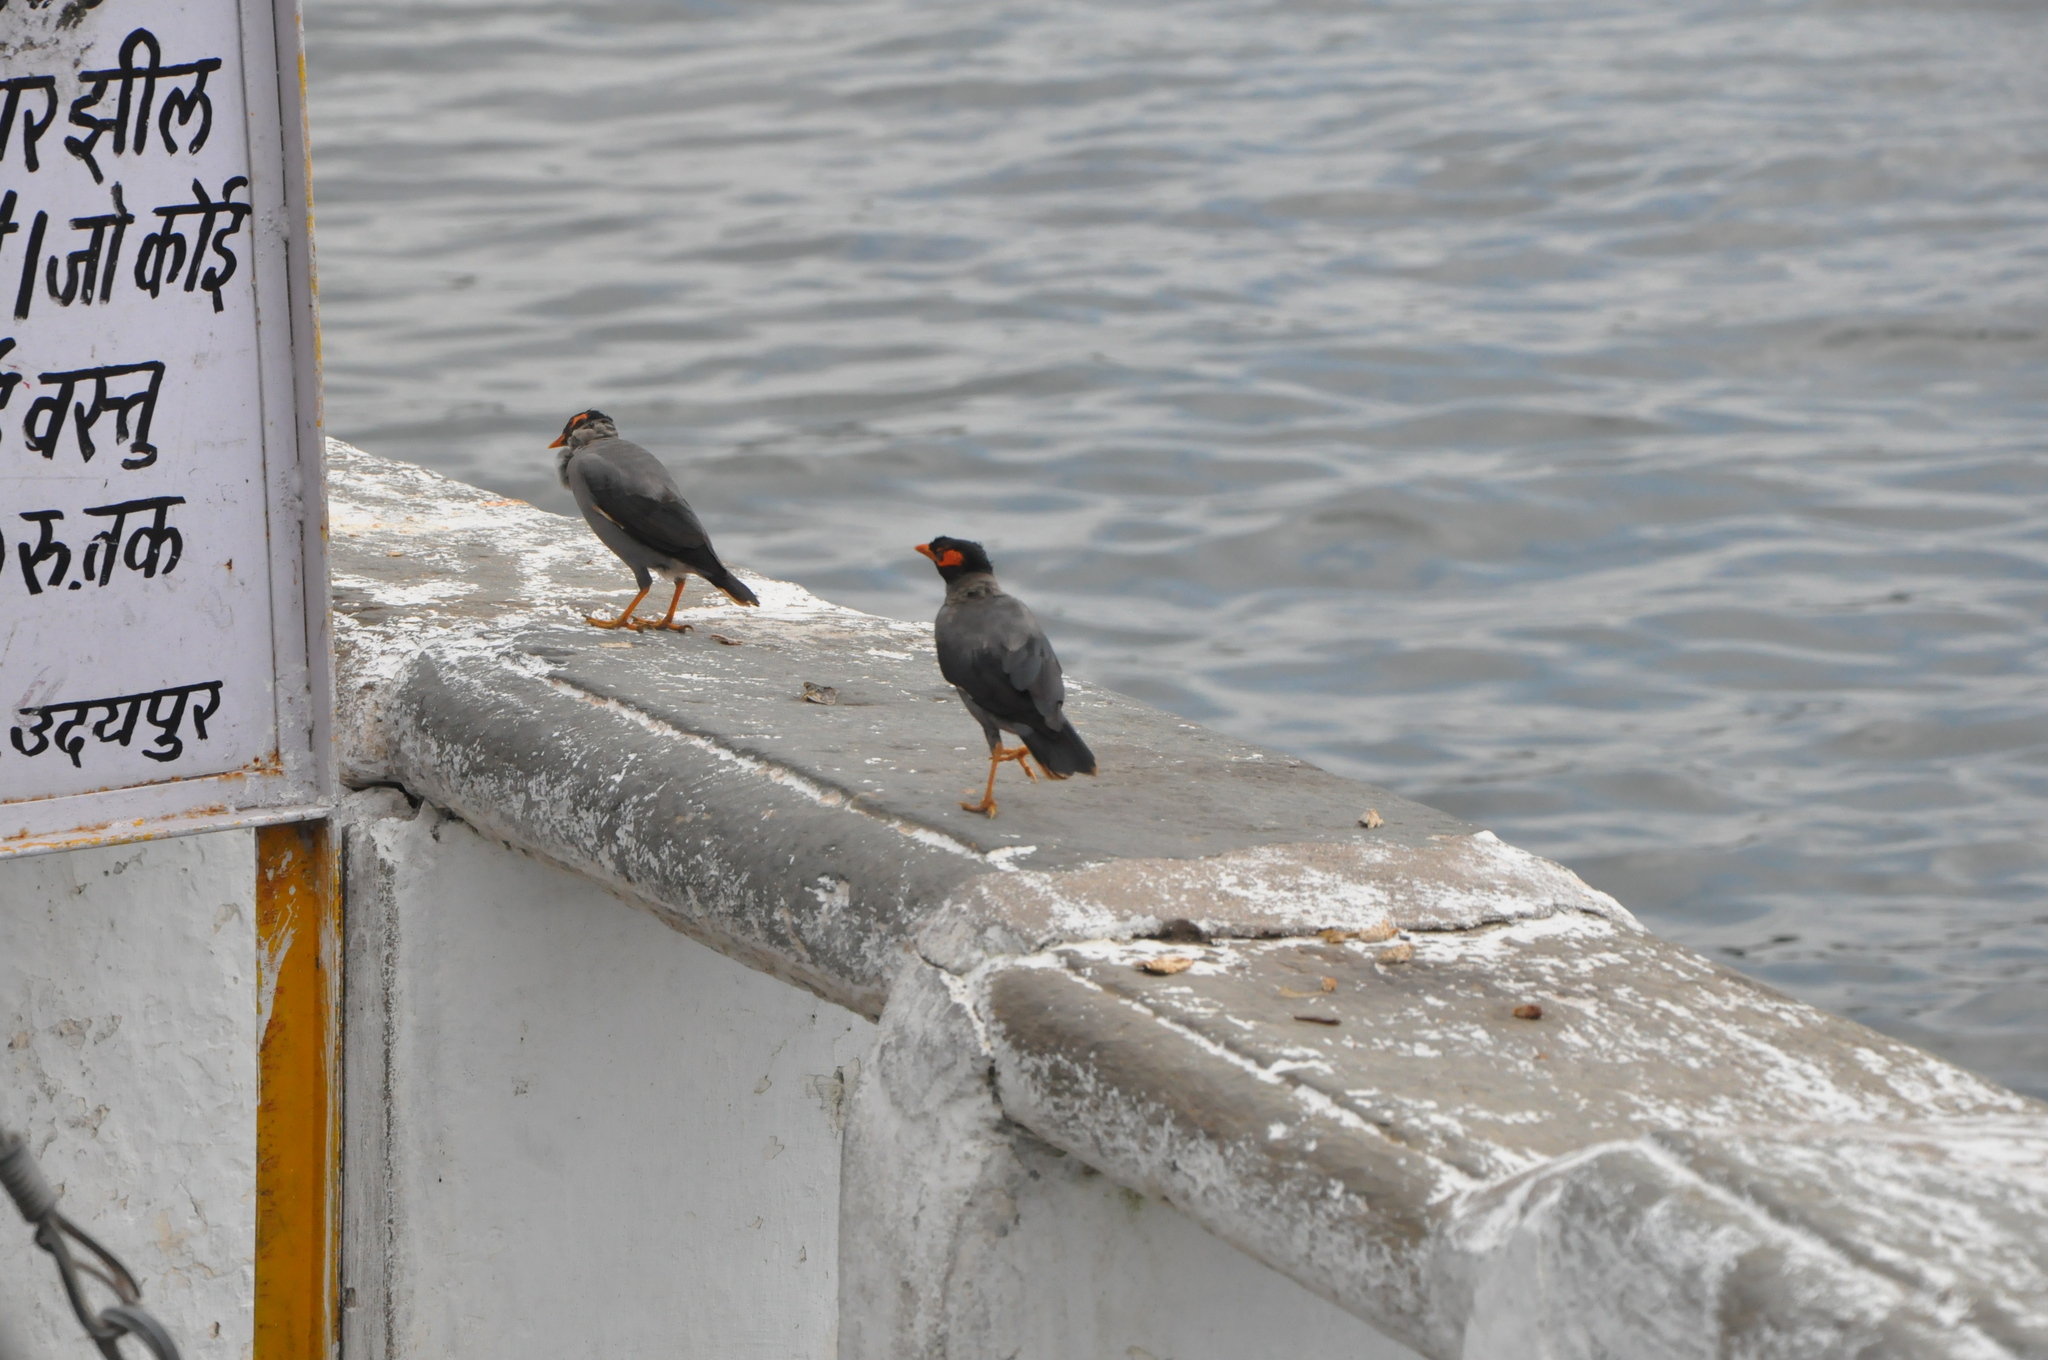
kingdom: Animalia
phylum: Chordata
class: Aves
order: Passeriformes
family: Sturnidae
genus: Acridotheres
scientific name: Acridotheres ginginianus
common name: Bank myna
